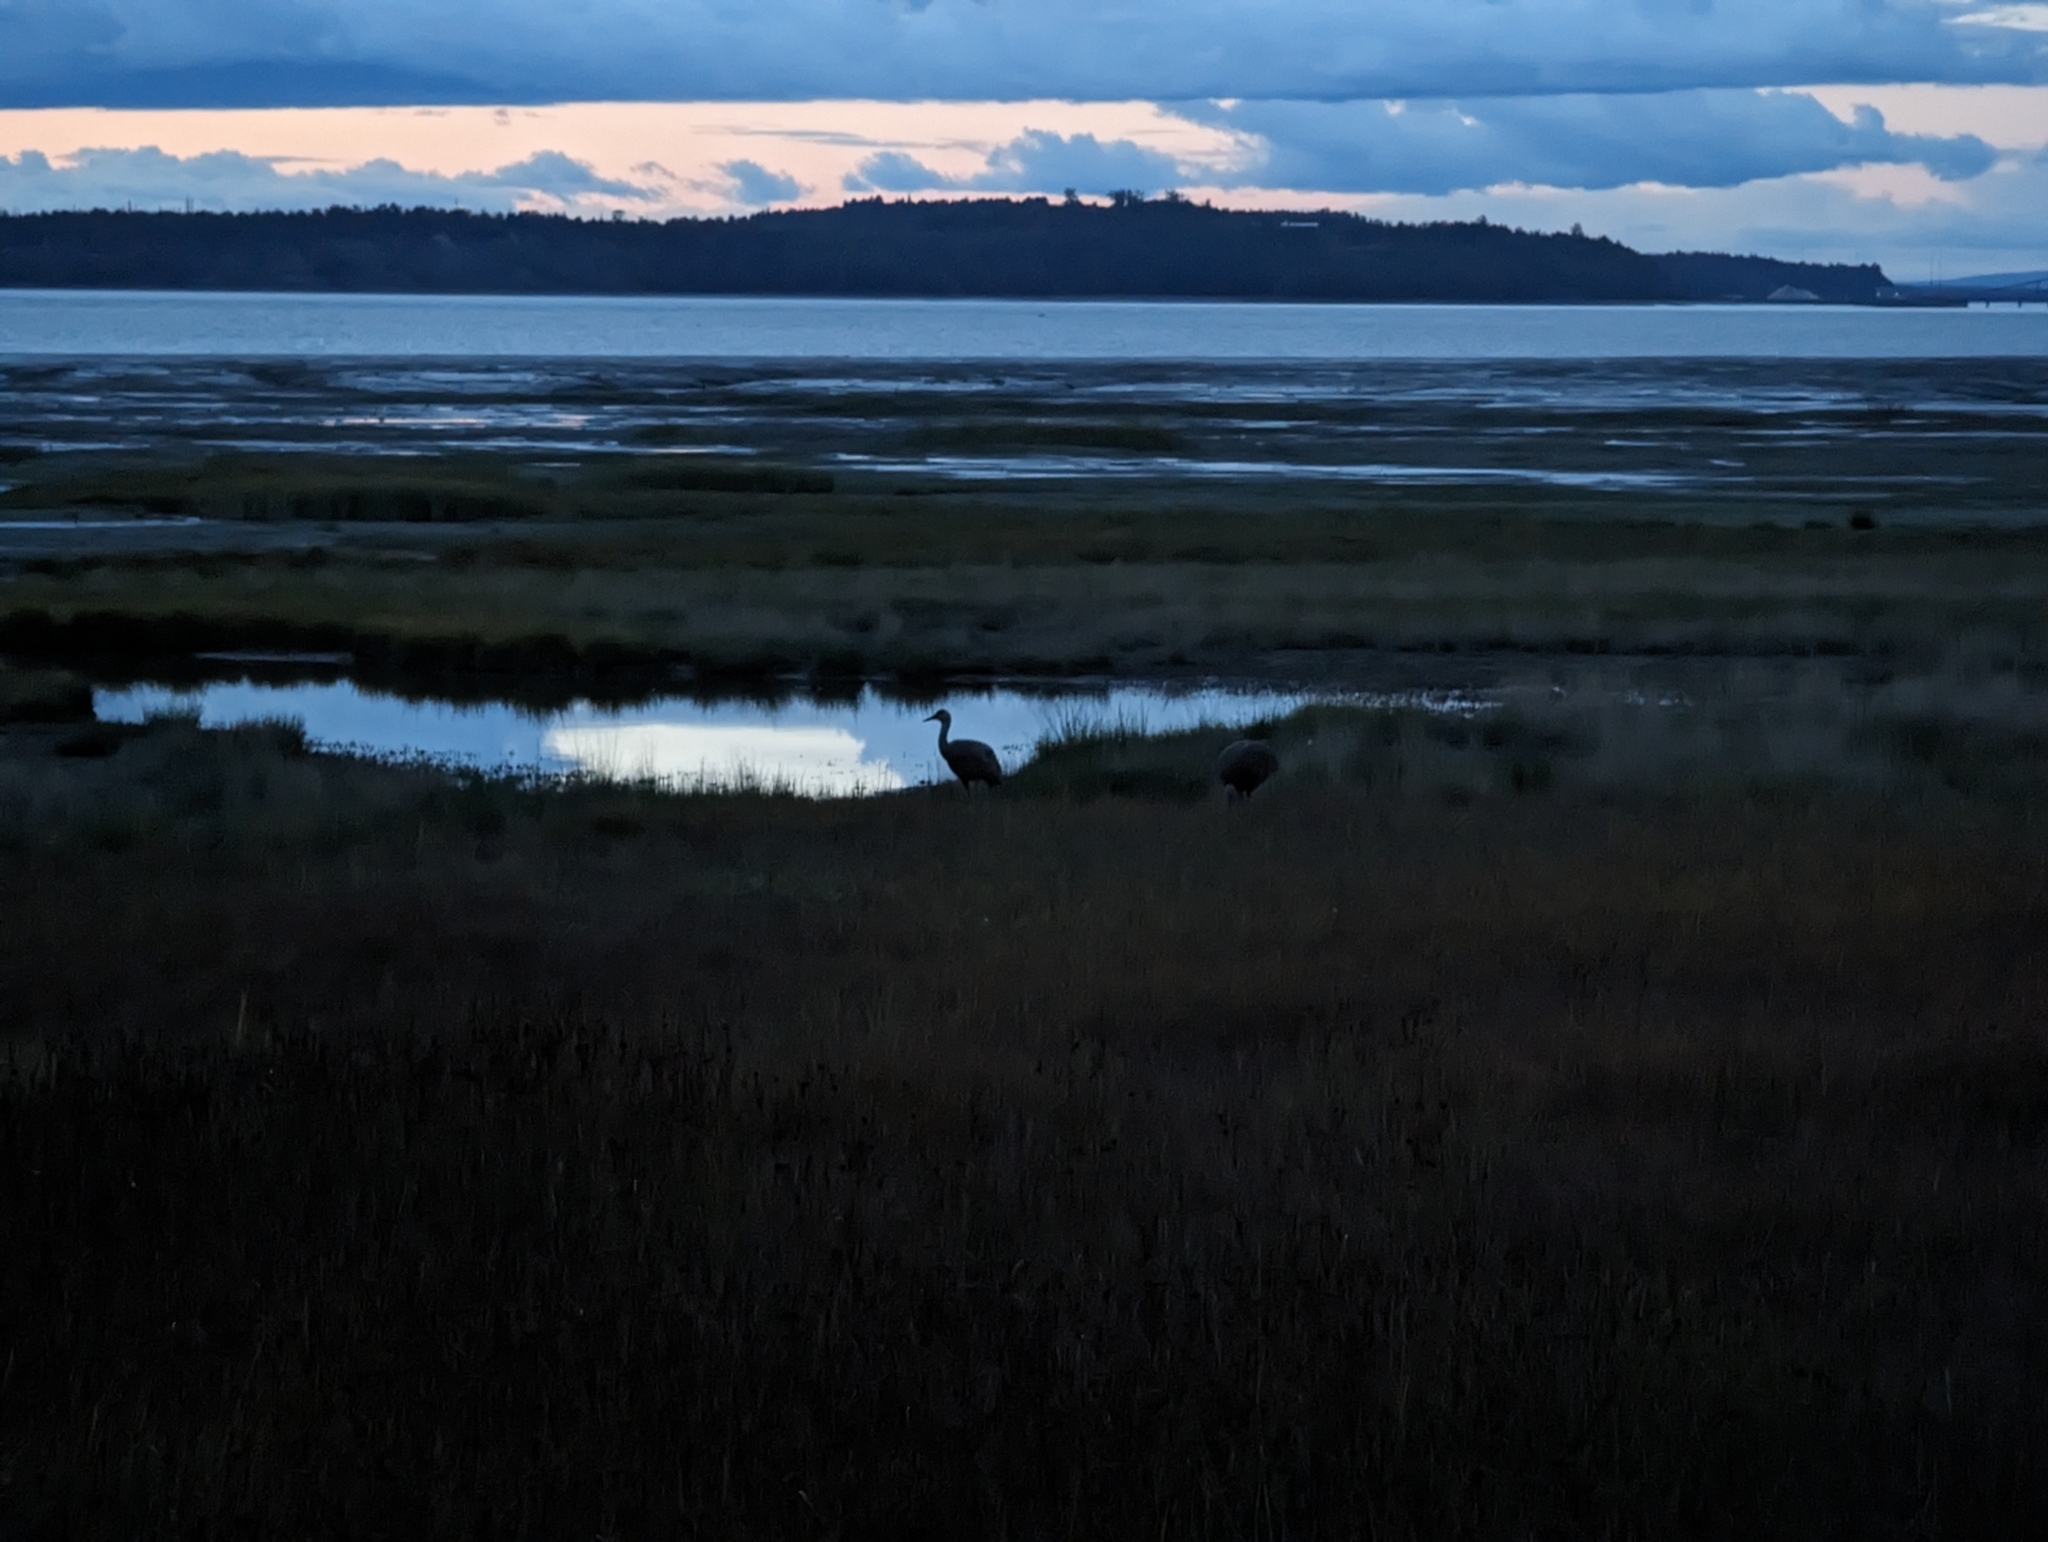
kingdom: Animalia
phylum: Chordata
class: Aves
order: Gruiformes
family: Gruidae
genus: Grus
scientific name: Grus canadensis
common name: Sandhill crane
